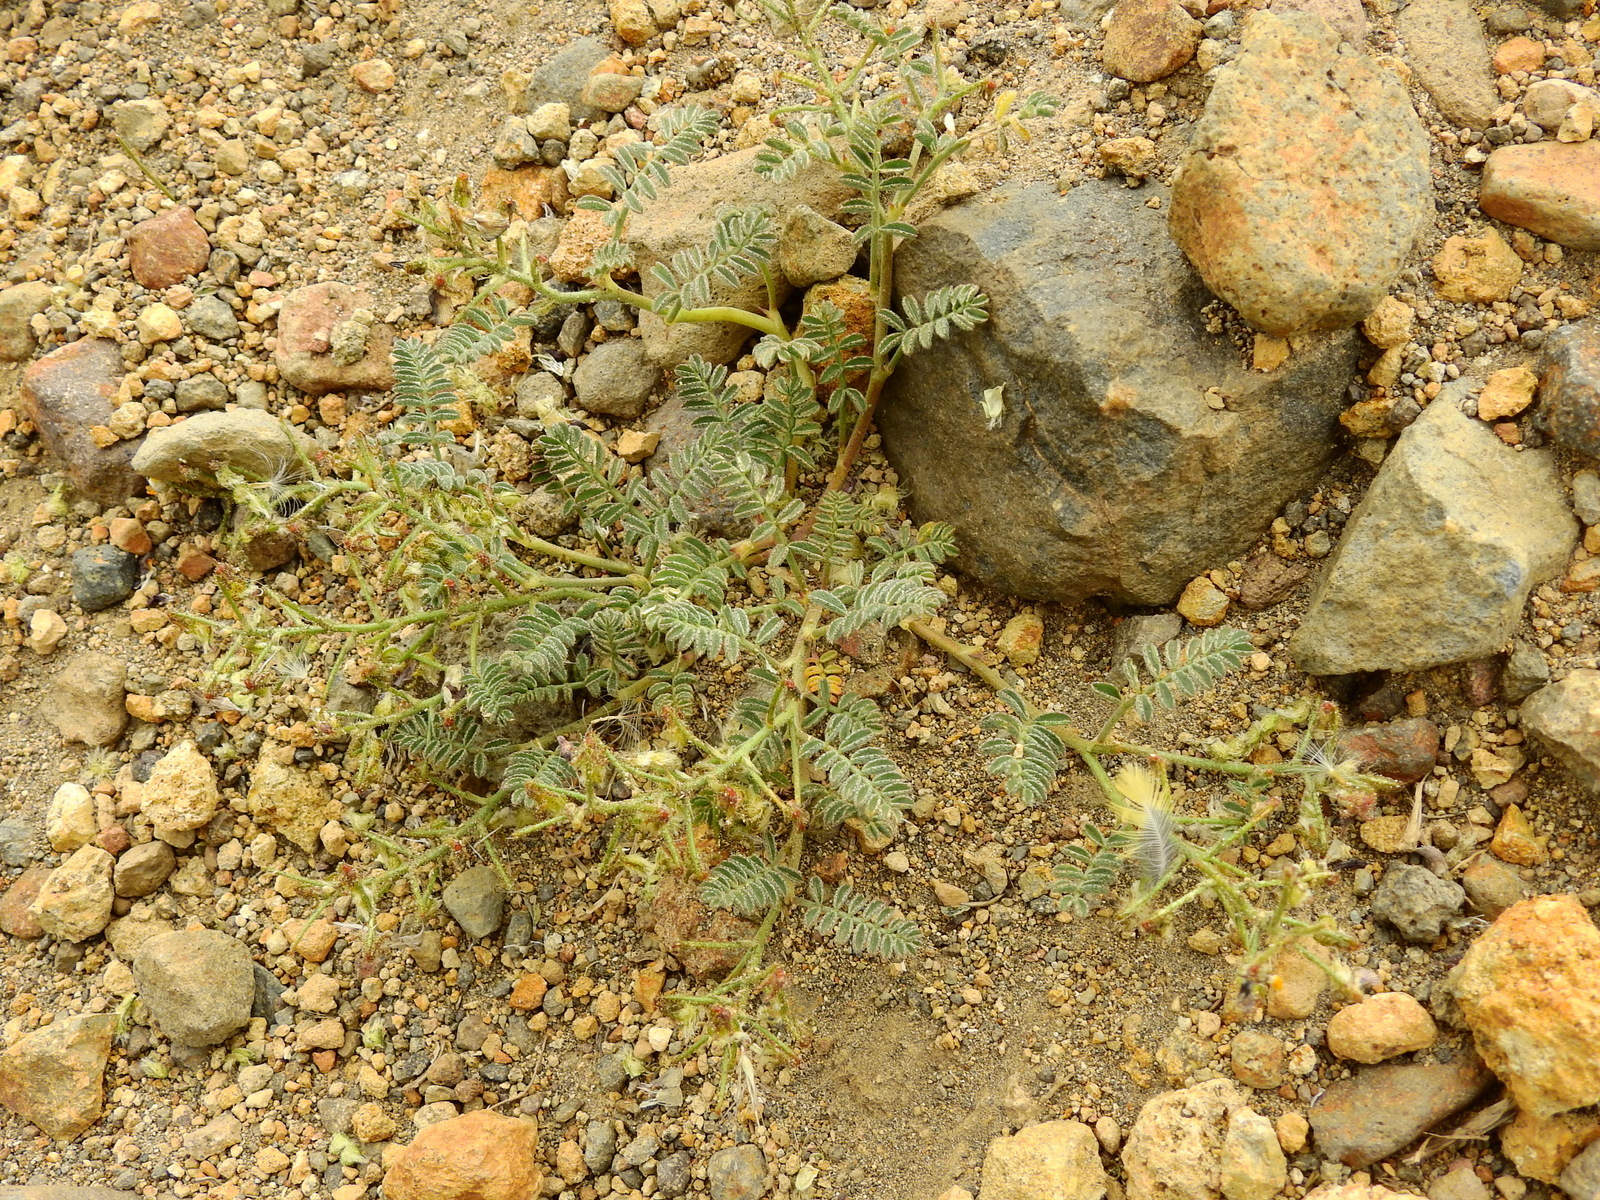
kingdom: Plantae
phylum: Tracheophyta
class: Magnoliopsida
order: Fabales
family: Fabaceae
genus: Adesmia
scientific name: Adesmia corymbosa
